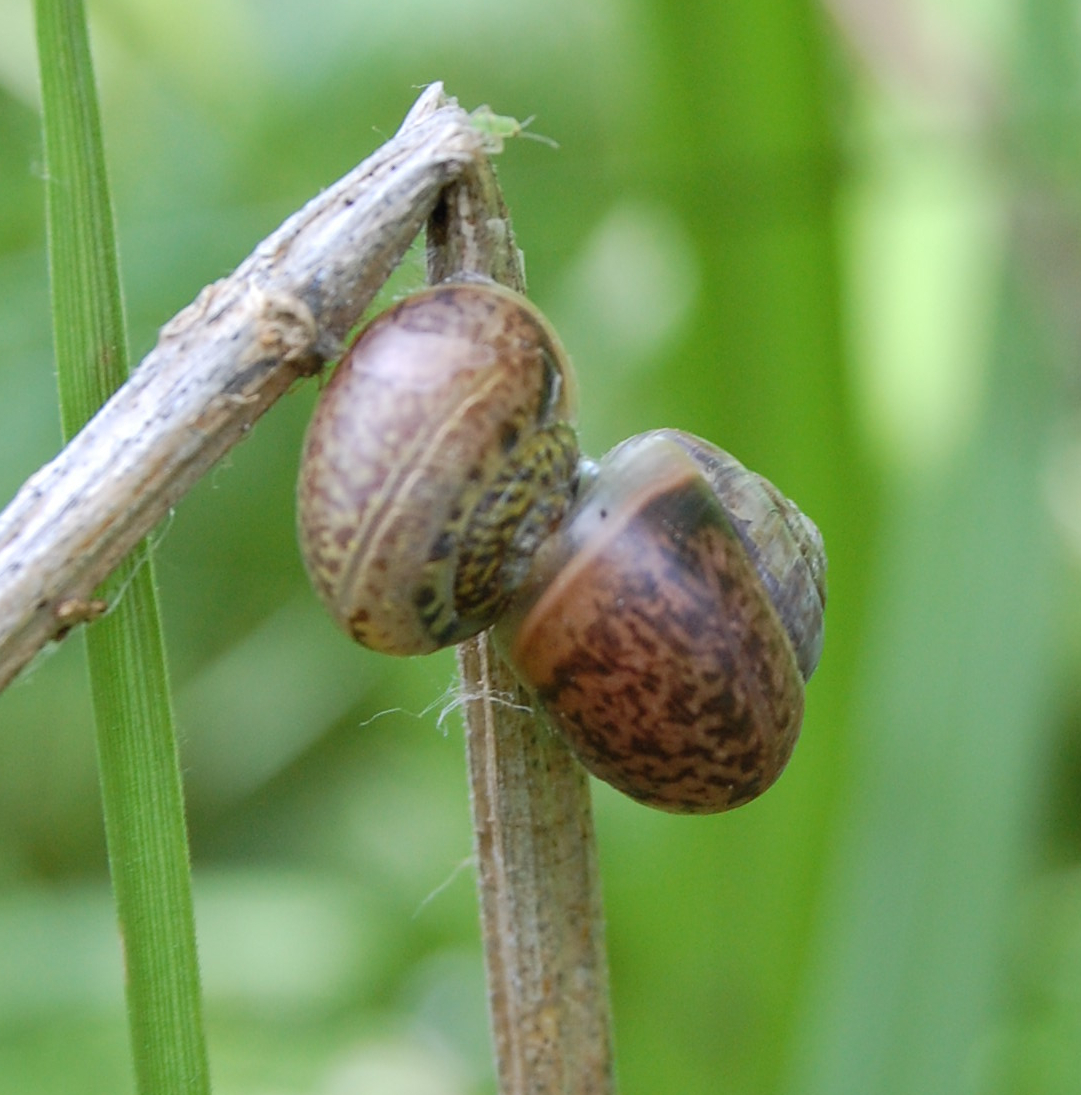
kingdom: Animalia
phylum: Mollusca
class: Gastropoda
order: Stylommatophora
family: Camaenidae
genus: Fruticicola
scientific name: Fruticicola fruticum
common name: Bush snail
